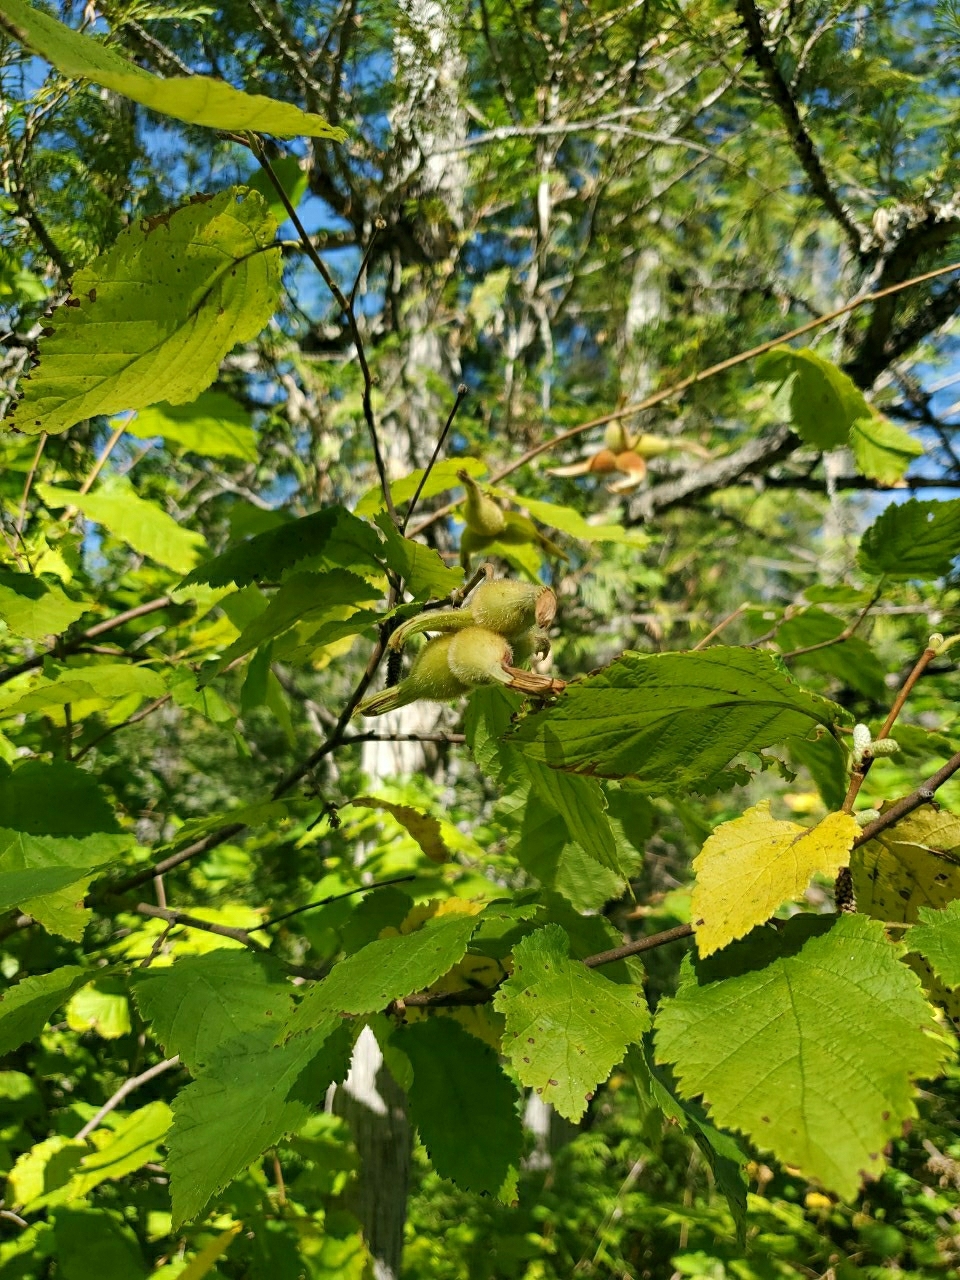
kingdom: Plantae
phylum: Tracheophyta
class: Magnoliopsida
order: Fagales
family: Betulaceae
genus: Corylus
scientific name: Corylus cornuta
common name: Beaked hazel
